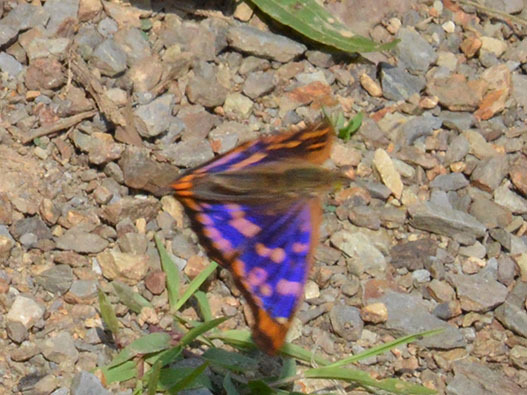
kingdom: Animalia
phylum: Arthropoda
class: Insecta
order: Lepidoptera
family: Nymphalidae
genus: Apatura
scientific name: Apatura ilia
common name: Lesser purple emperor
